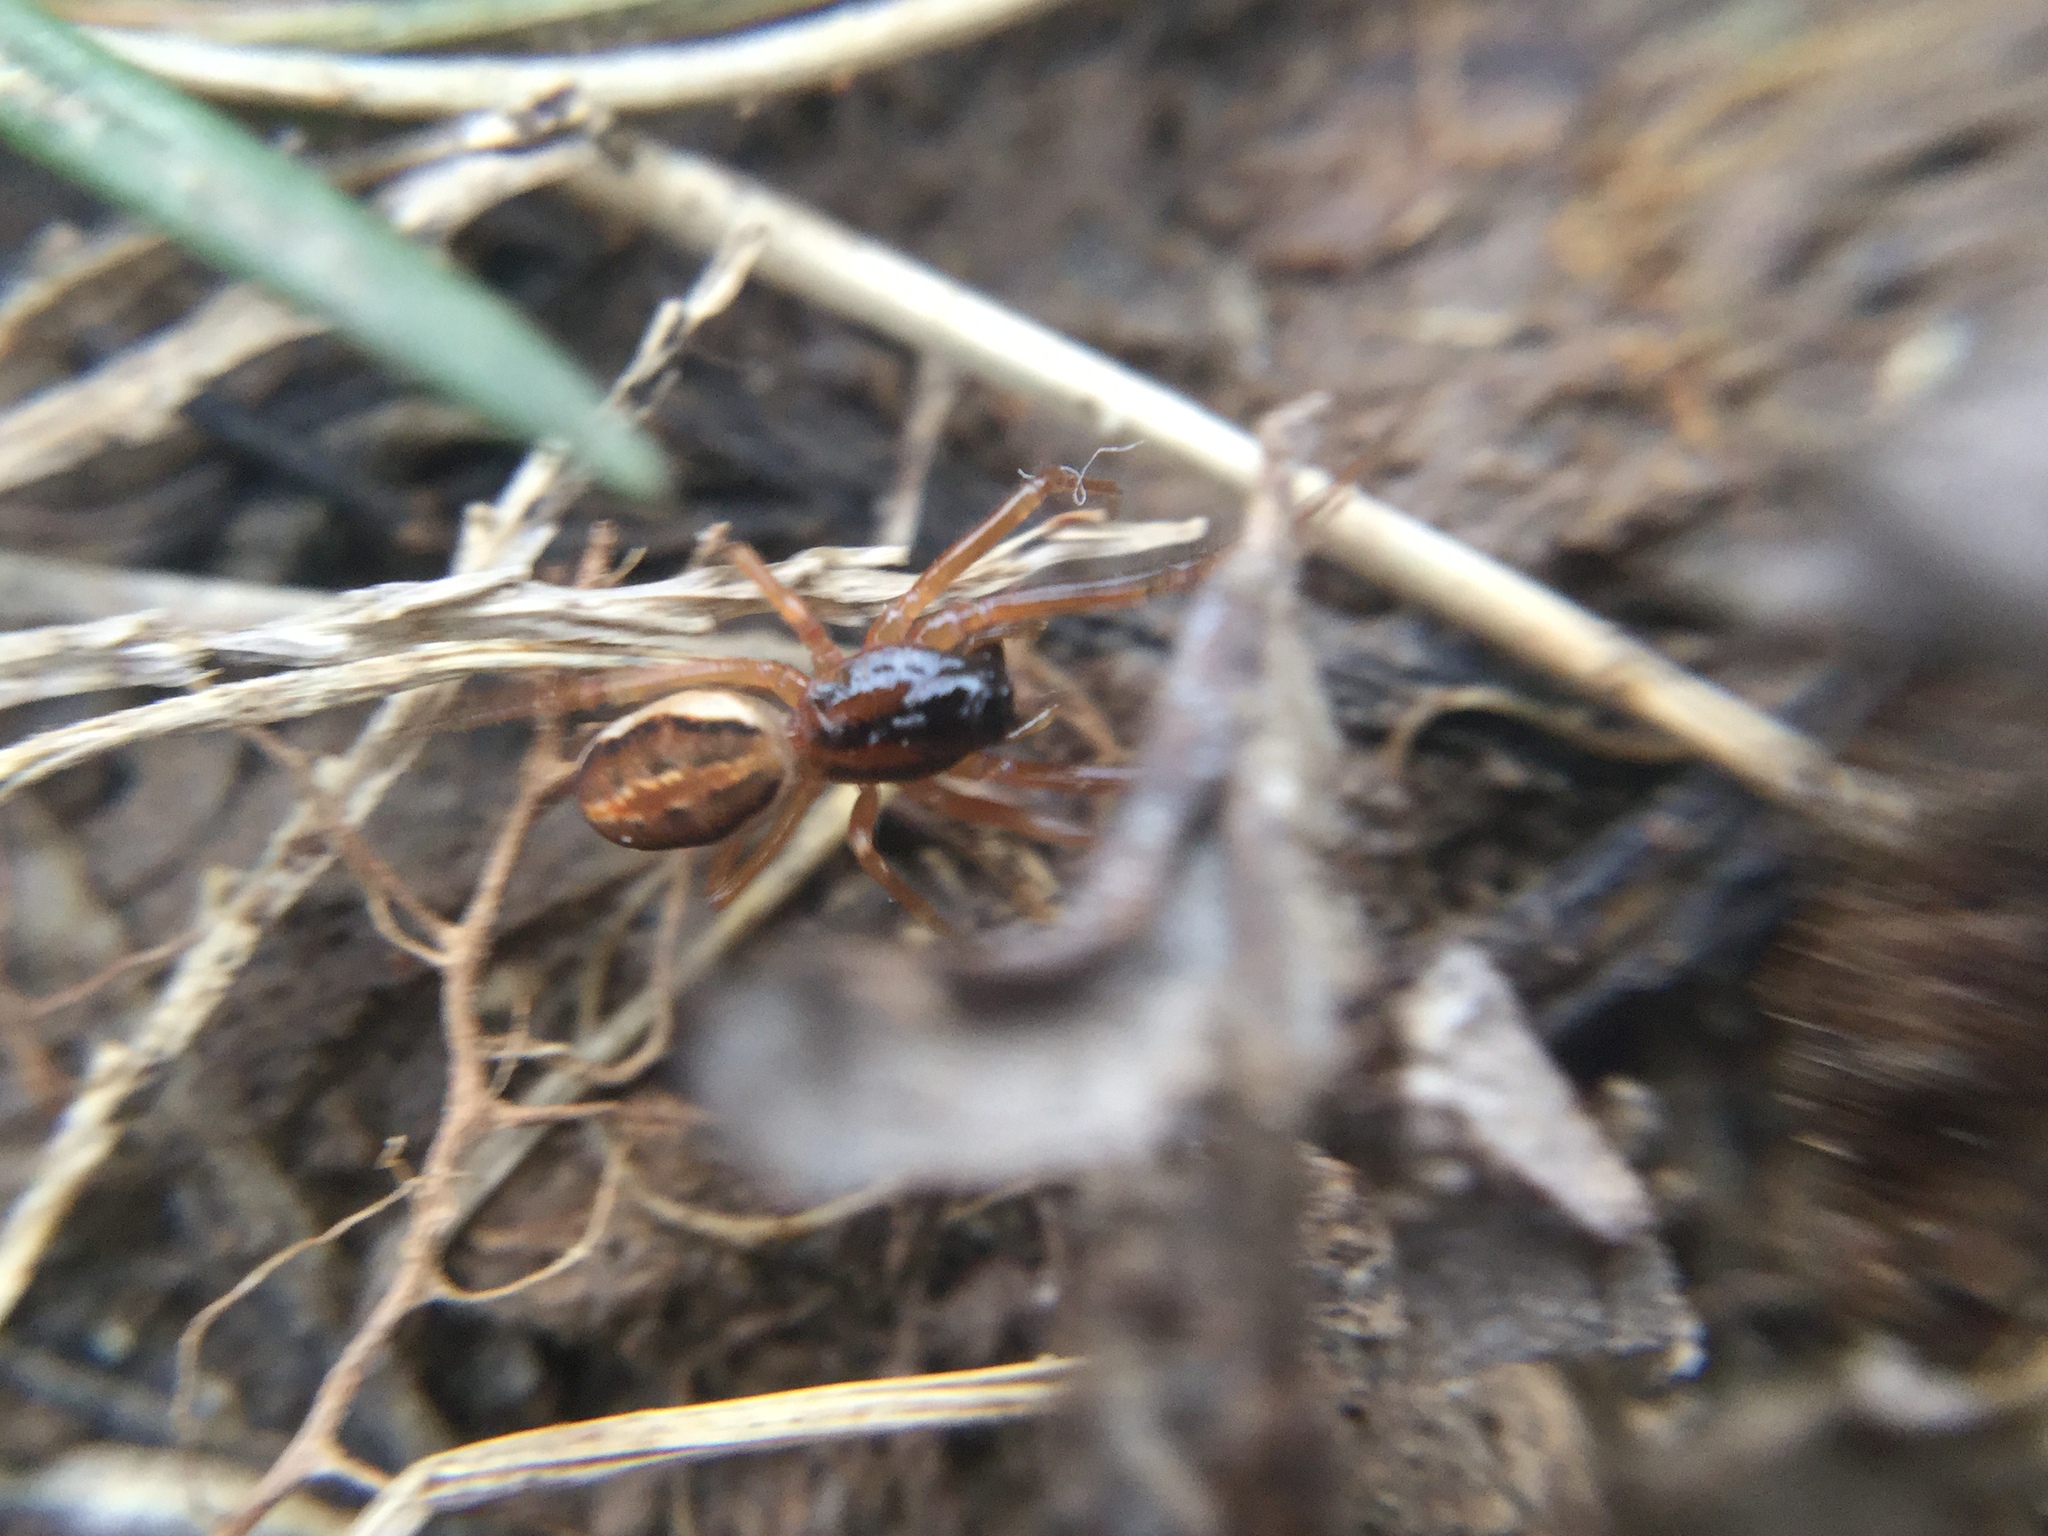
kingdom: Animalia
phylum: Arthropoda
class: Arachnida
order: Araneae
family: Tetragnathidae
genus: Pachygnatha
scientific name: Pachygnatha autumnalis
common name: Big-eyed thick-jawed spider
